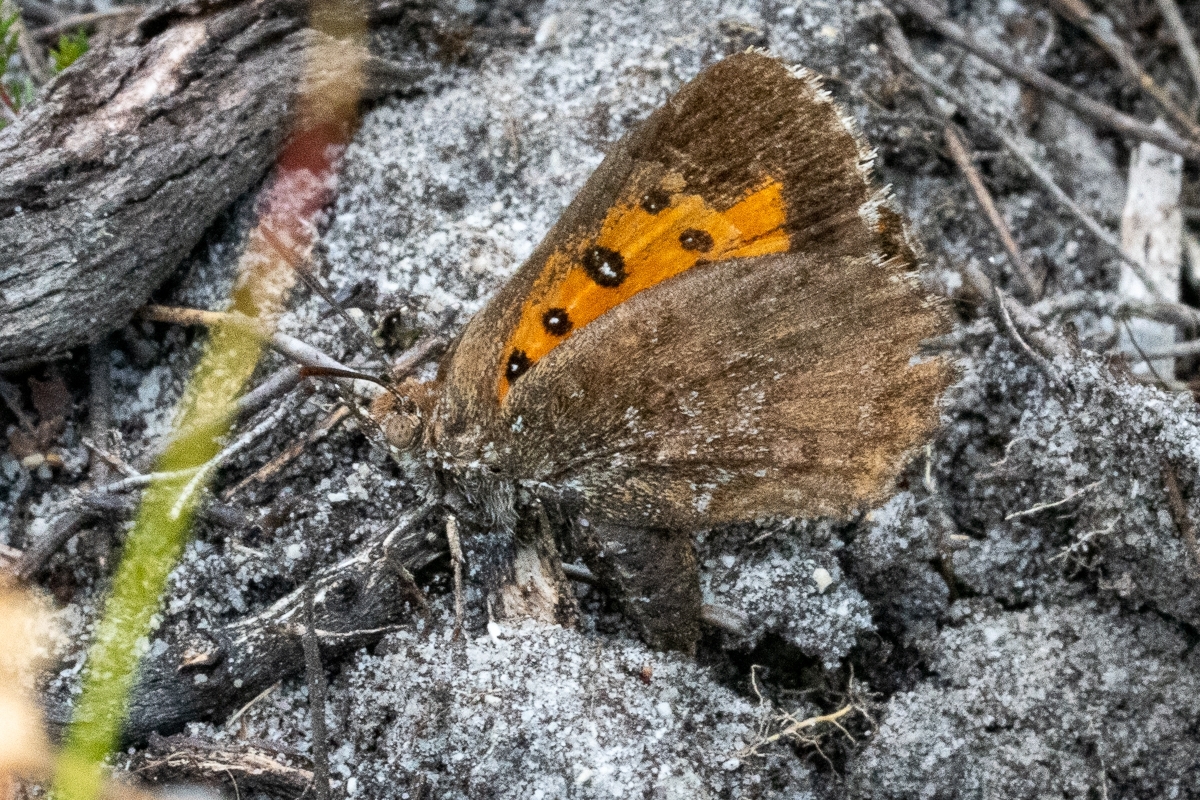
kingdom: Animalia
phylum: Arthropoda
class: Insecta
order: Lepidoptera
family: Lycaenidae
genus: Aloeides
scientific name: Aloeides
